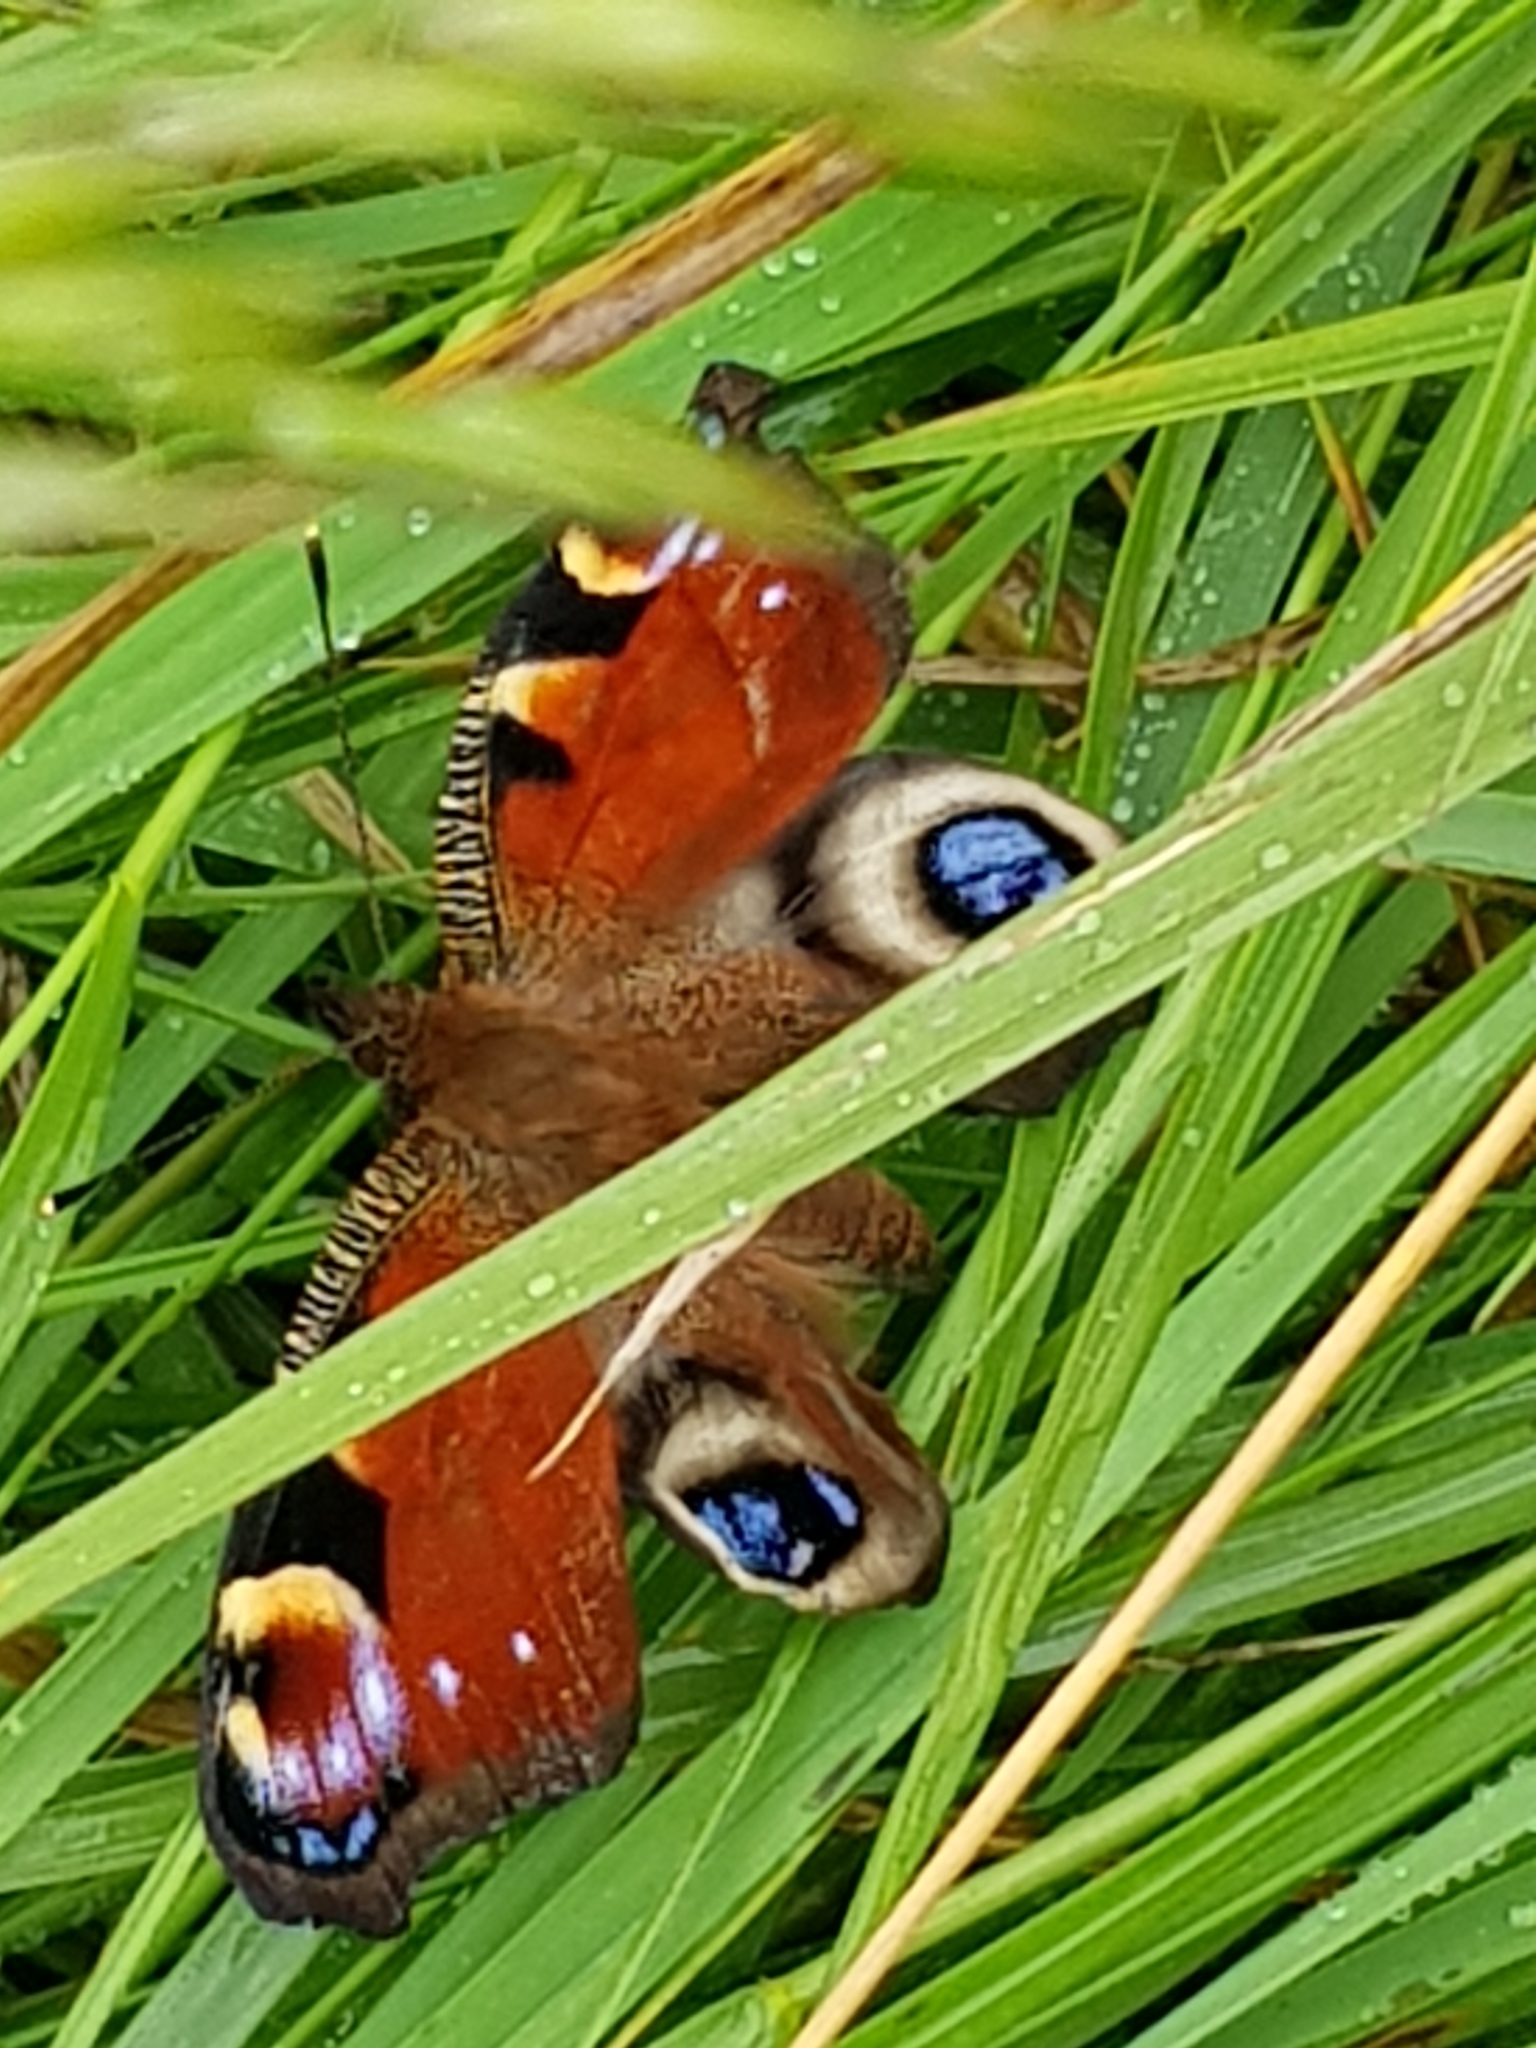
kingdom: Animalia
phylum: Arthropoda
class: Insecta
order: Lepidoptera
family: Nymphalidae
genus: Aglais
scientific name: Aglais io
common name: Peacock
